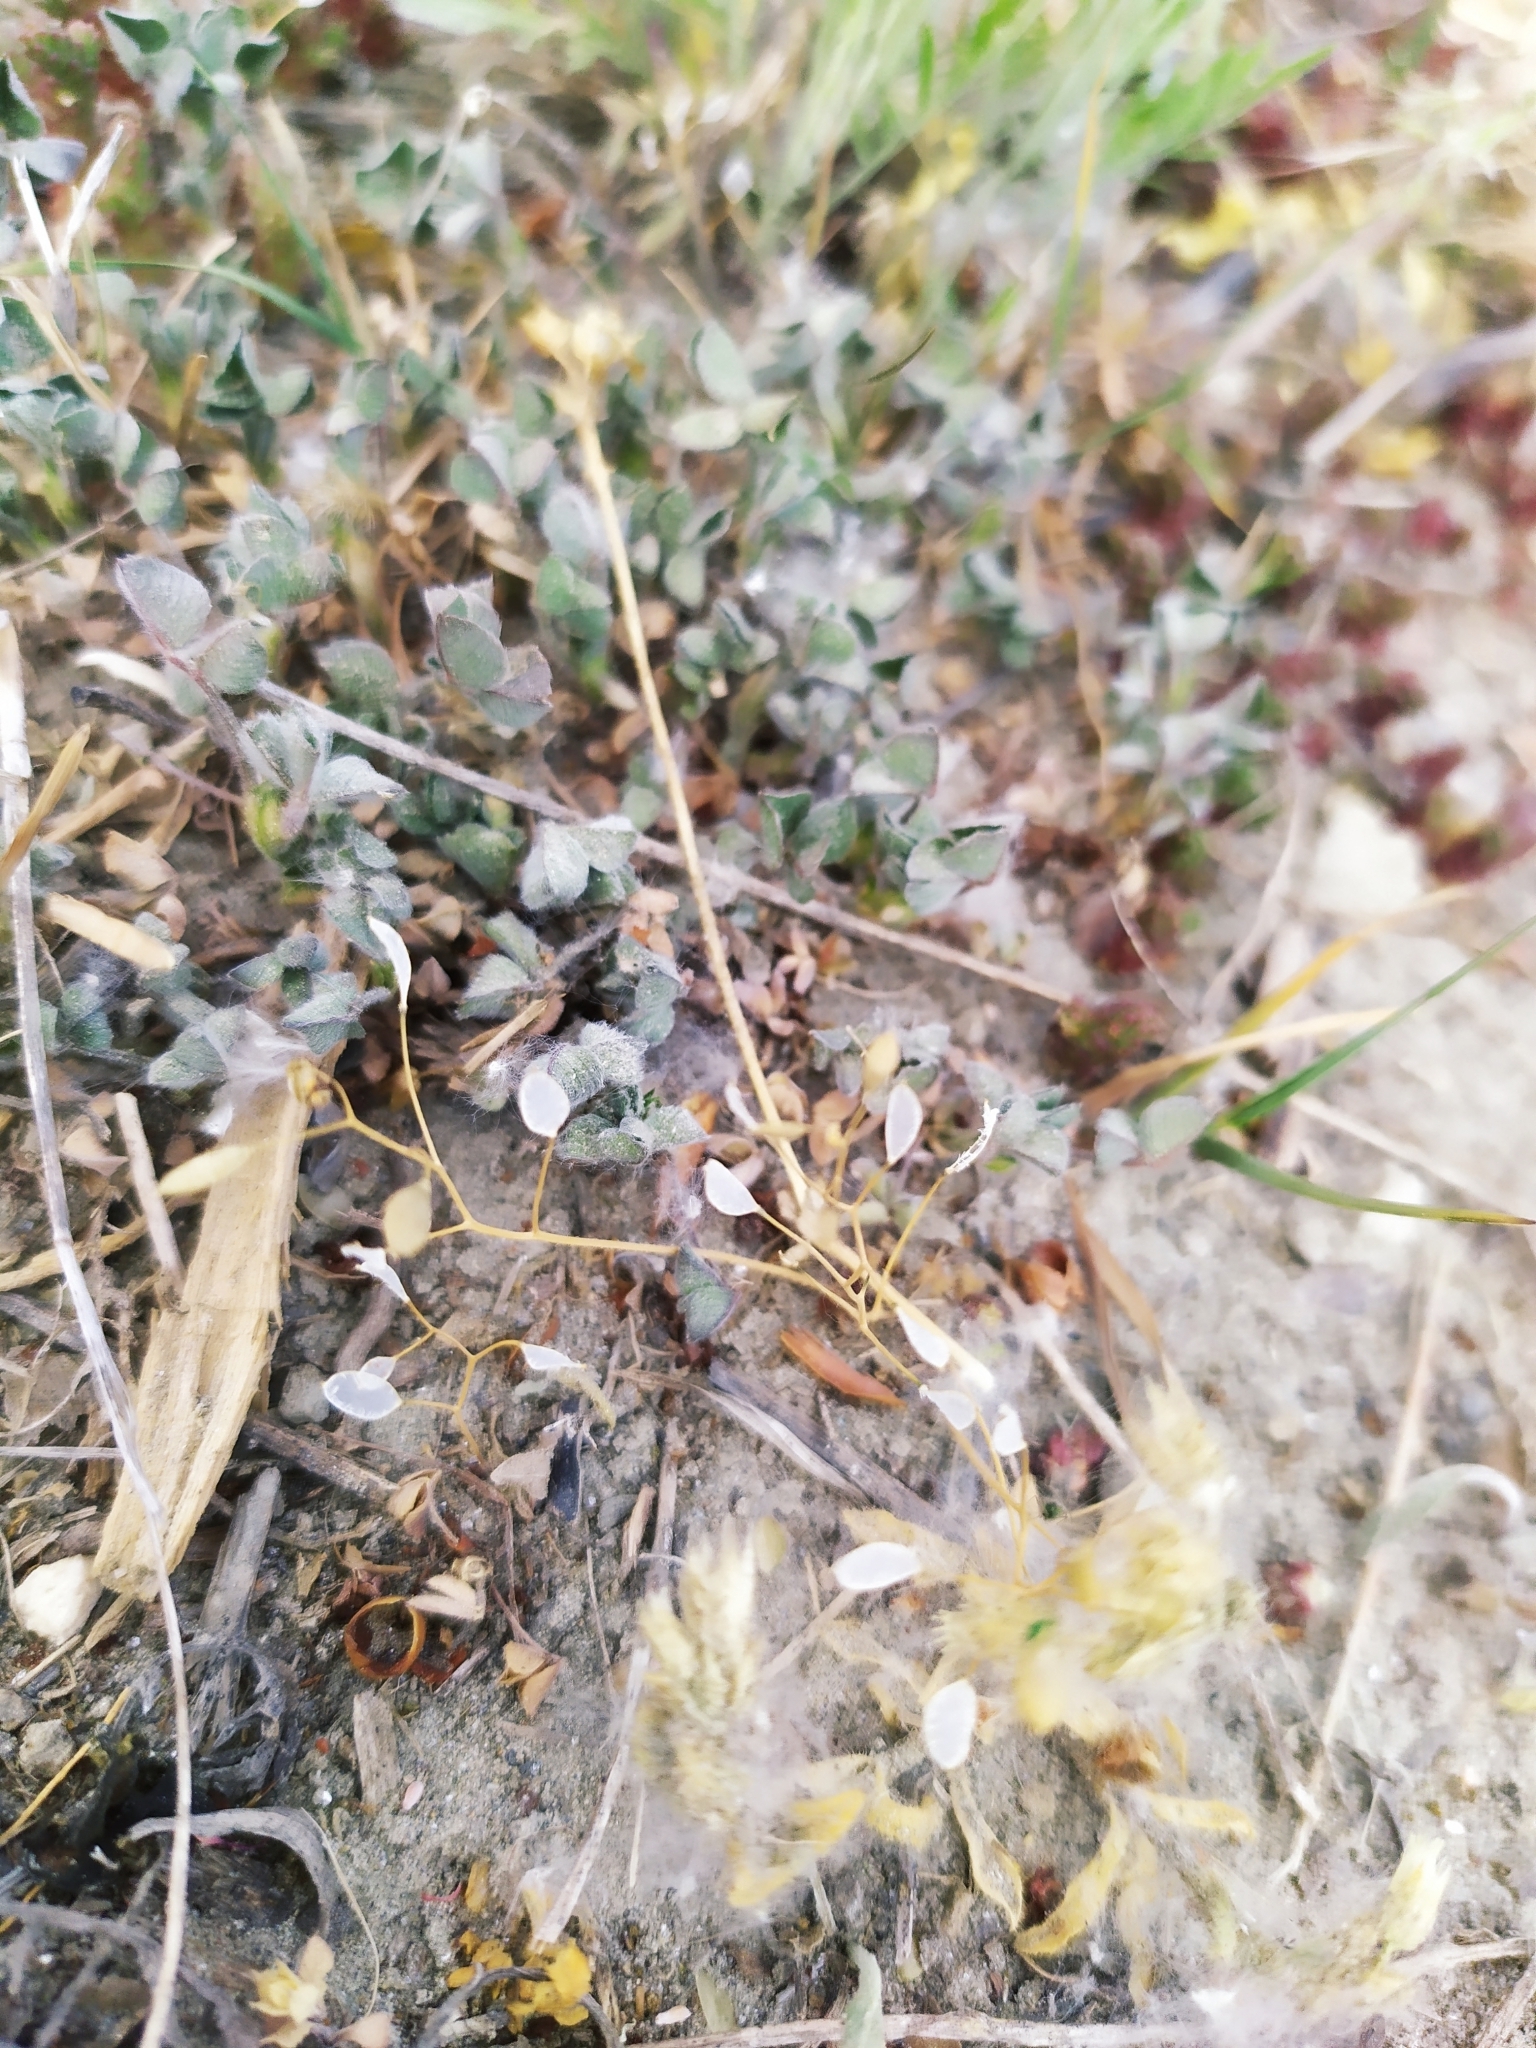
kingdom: Plantae
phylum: Tracheophyta
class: Magnoliopsida
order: Brassicales
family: Brassicaceae
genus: Draba
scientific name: Draba verna
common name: Spring draba
